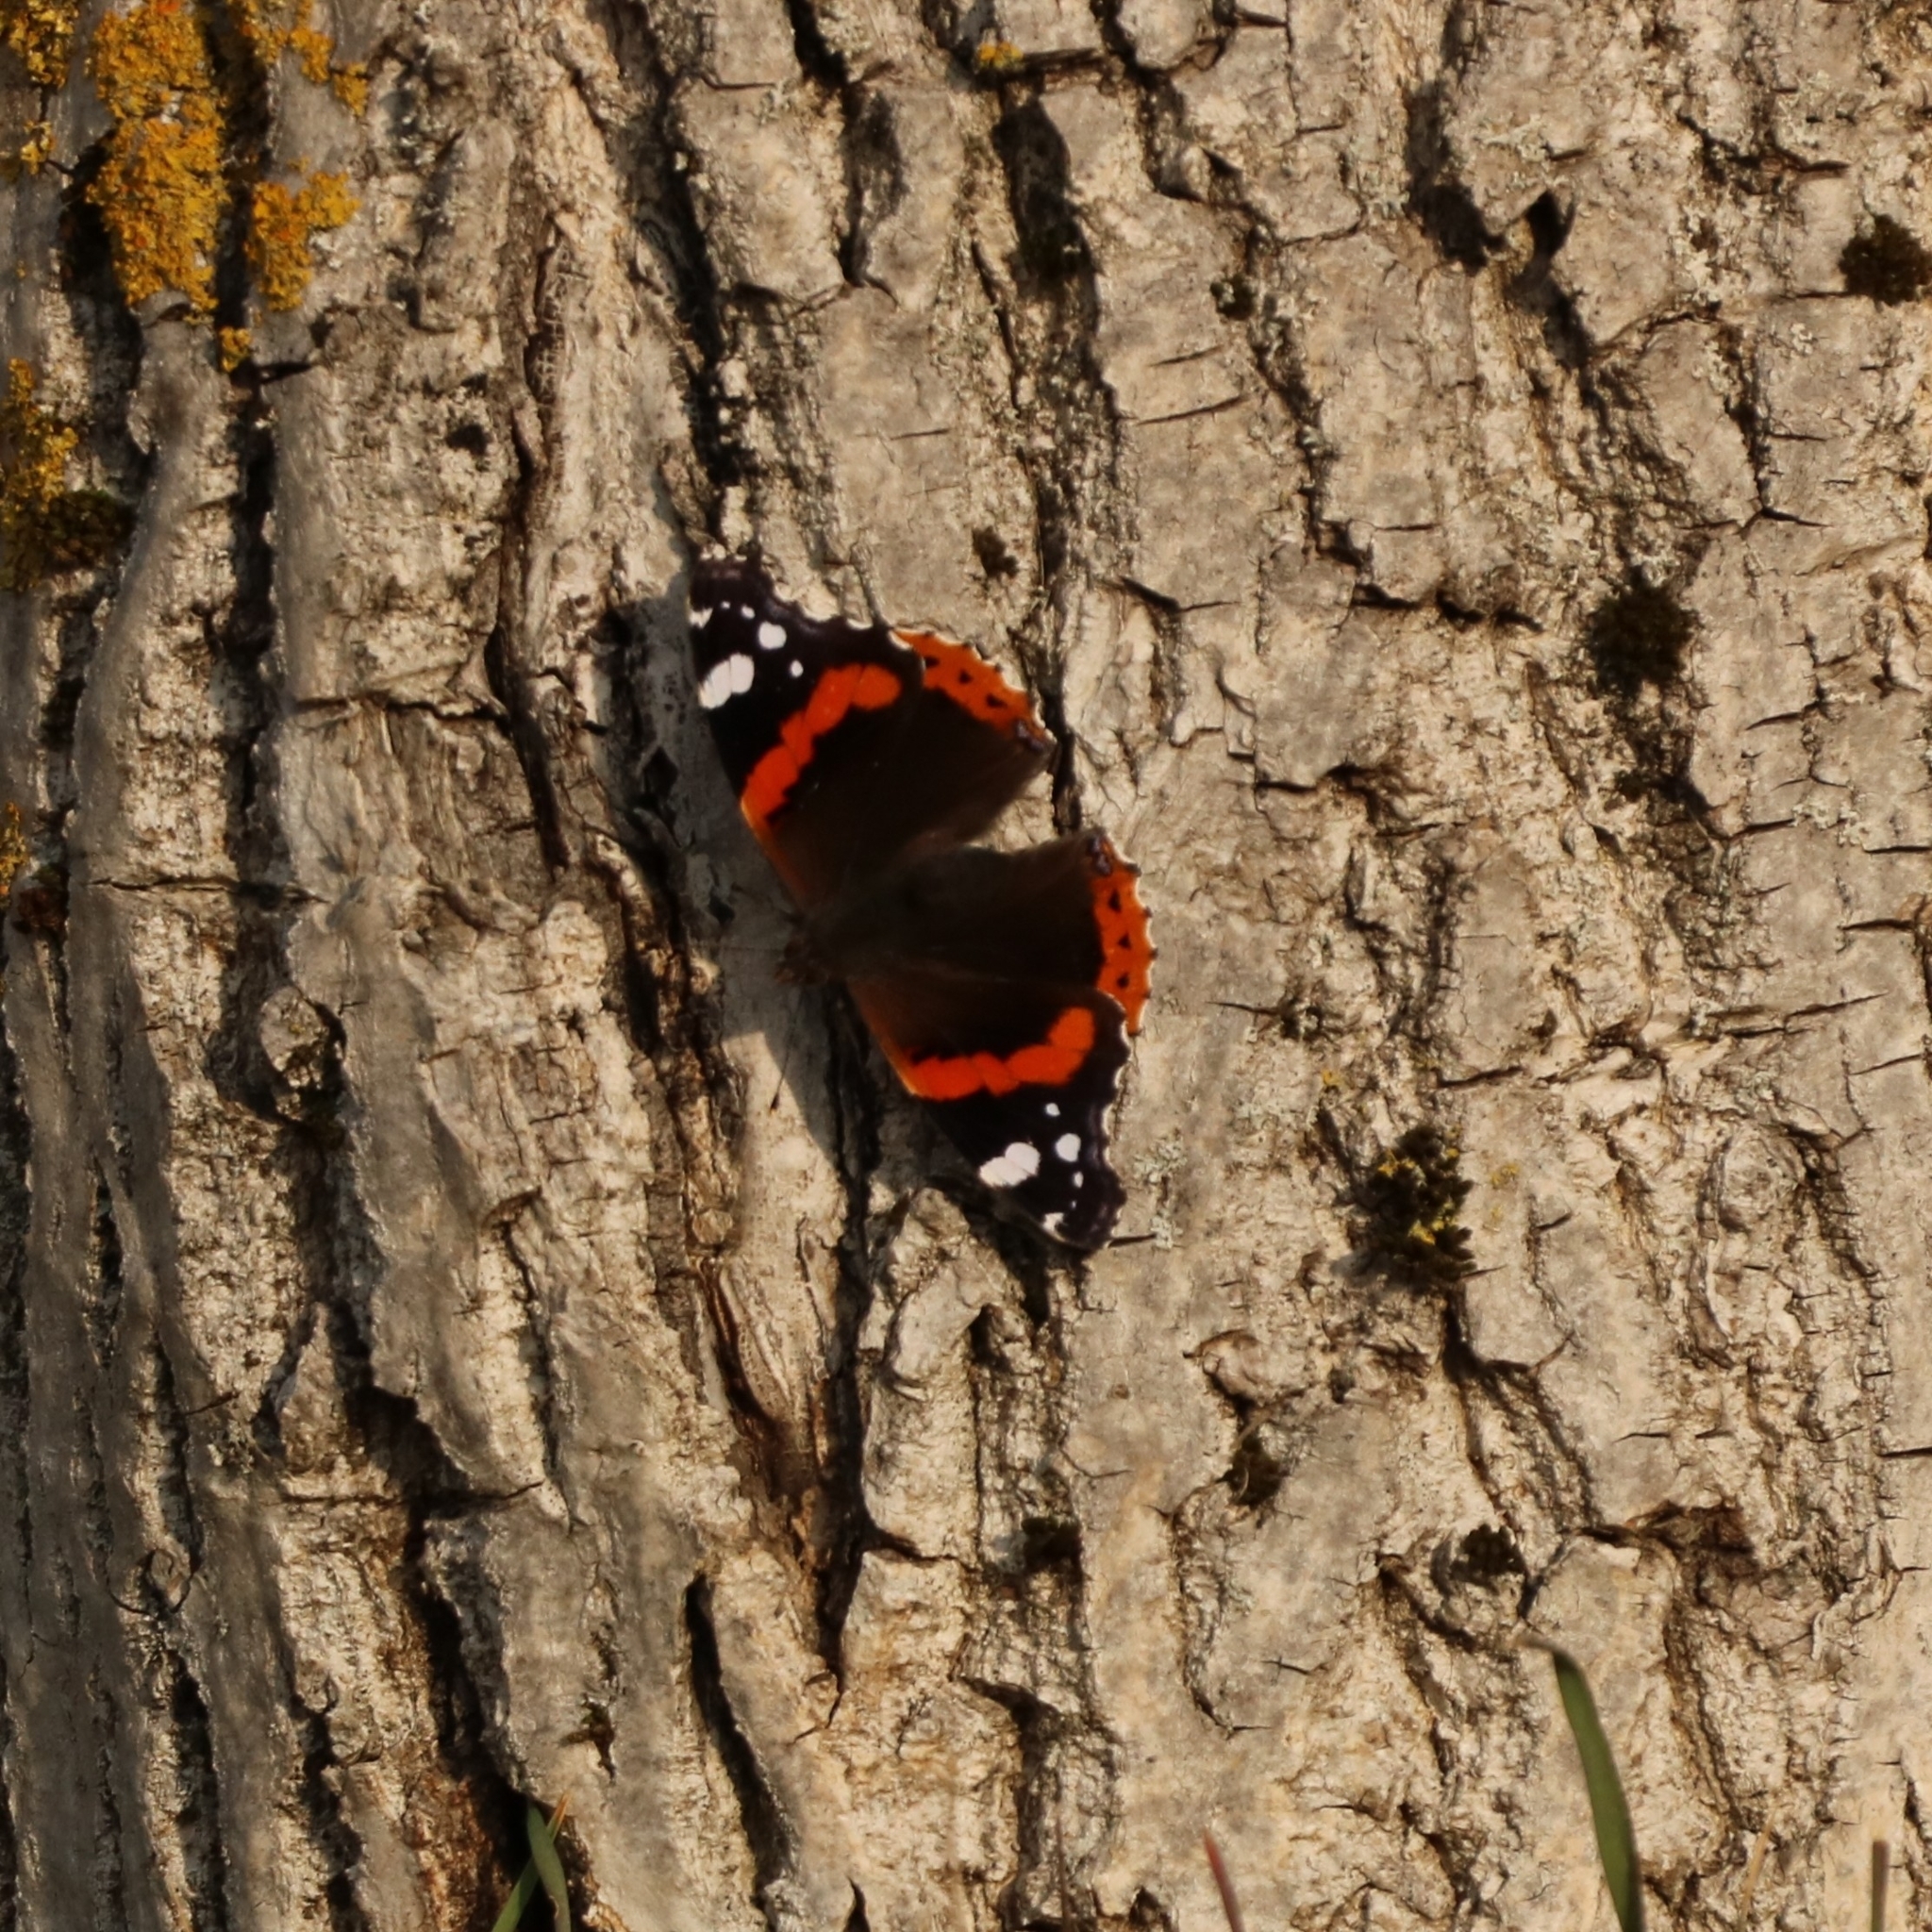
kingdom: Animalia
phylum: Arthropoda
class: Insecta
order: Lepidoptera
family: Nymphalidae
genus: Vanessa
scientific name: Vanessa atalanta
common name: Red admiral
